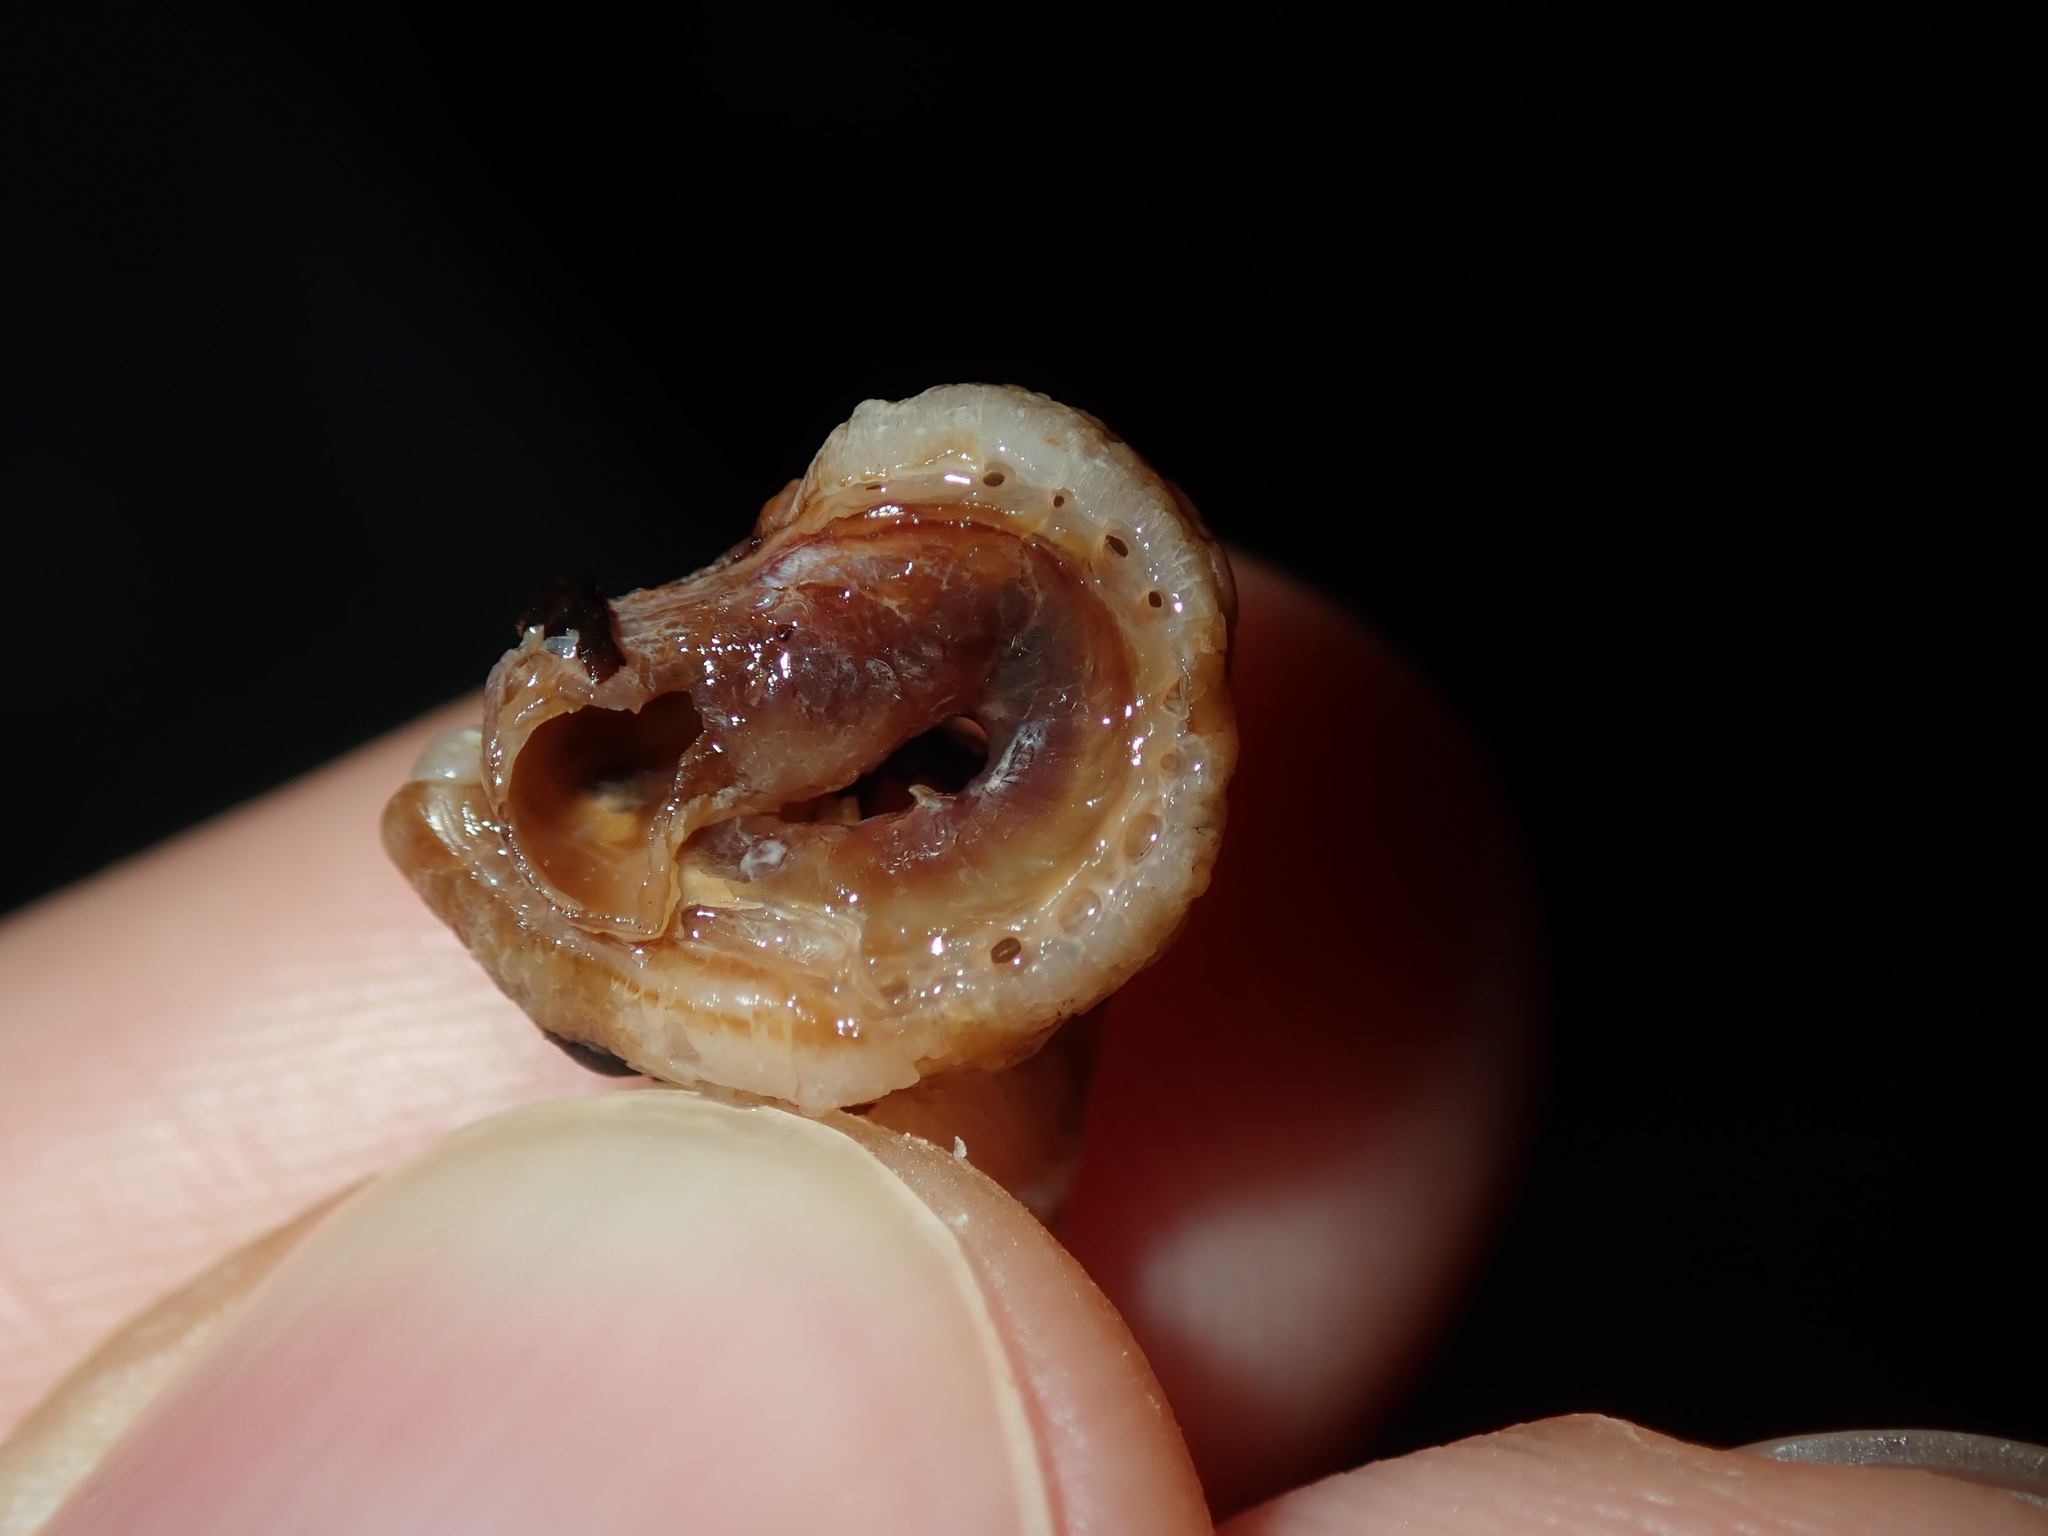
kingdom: Animalia
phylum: Mollusca
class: Gastropoda
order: Littorinimorpha
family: Vermetidae
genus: Thylacodes
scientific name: Thylacodes sipho
